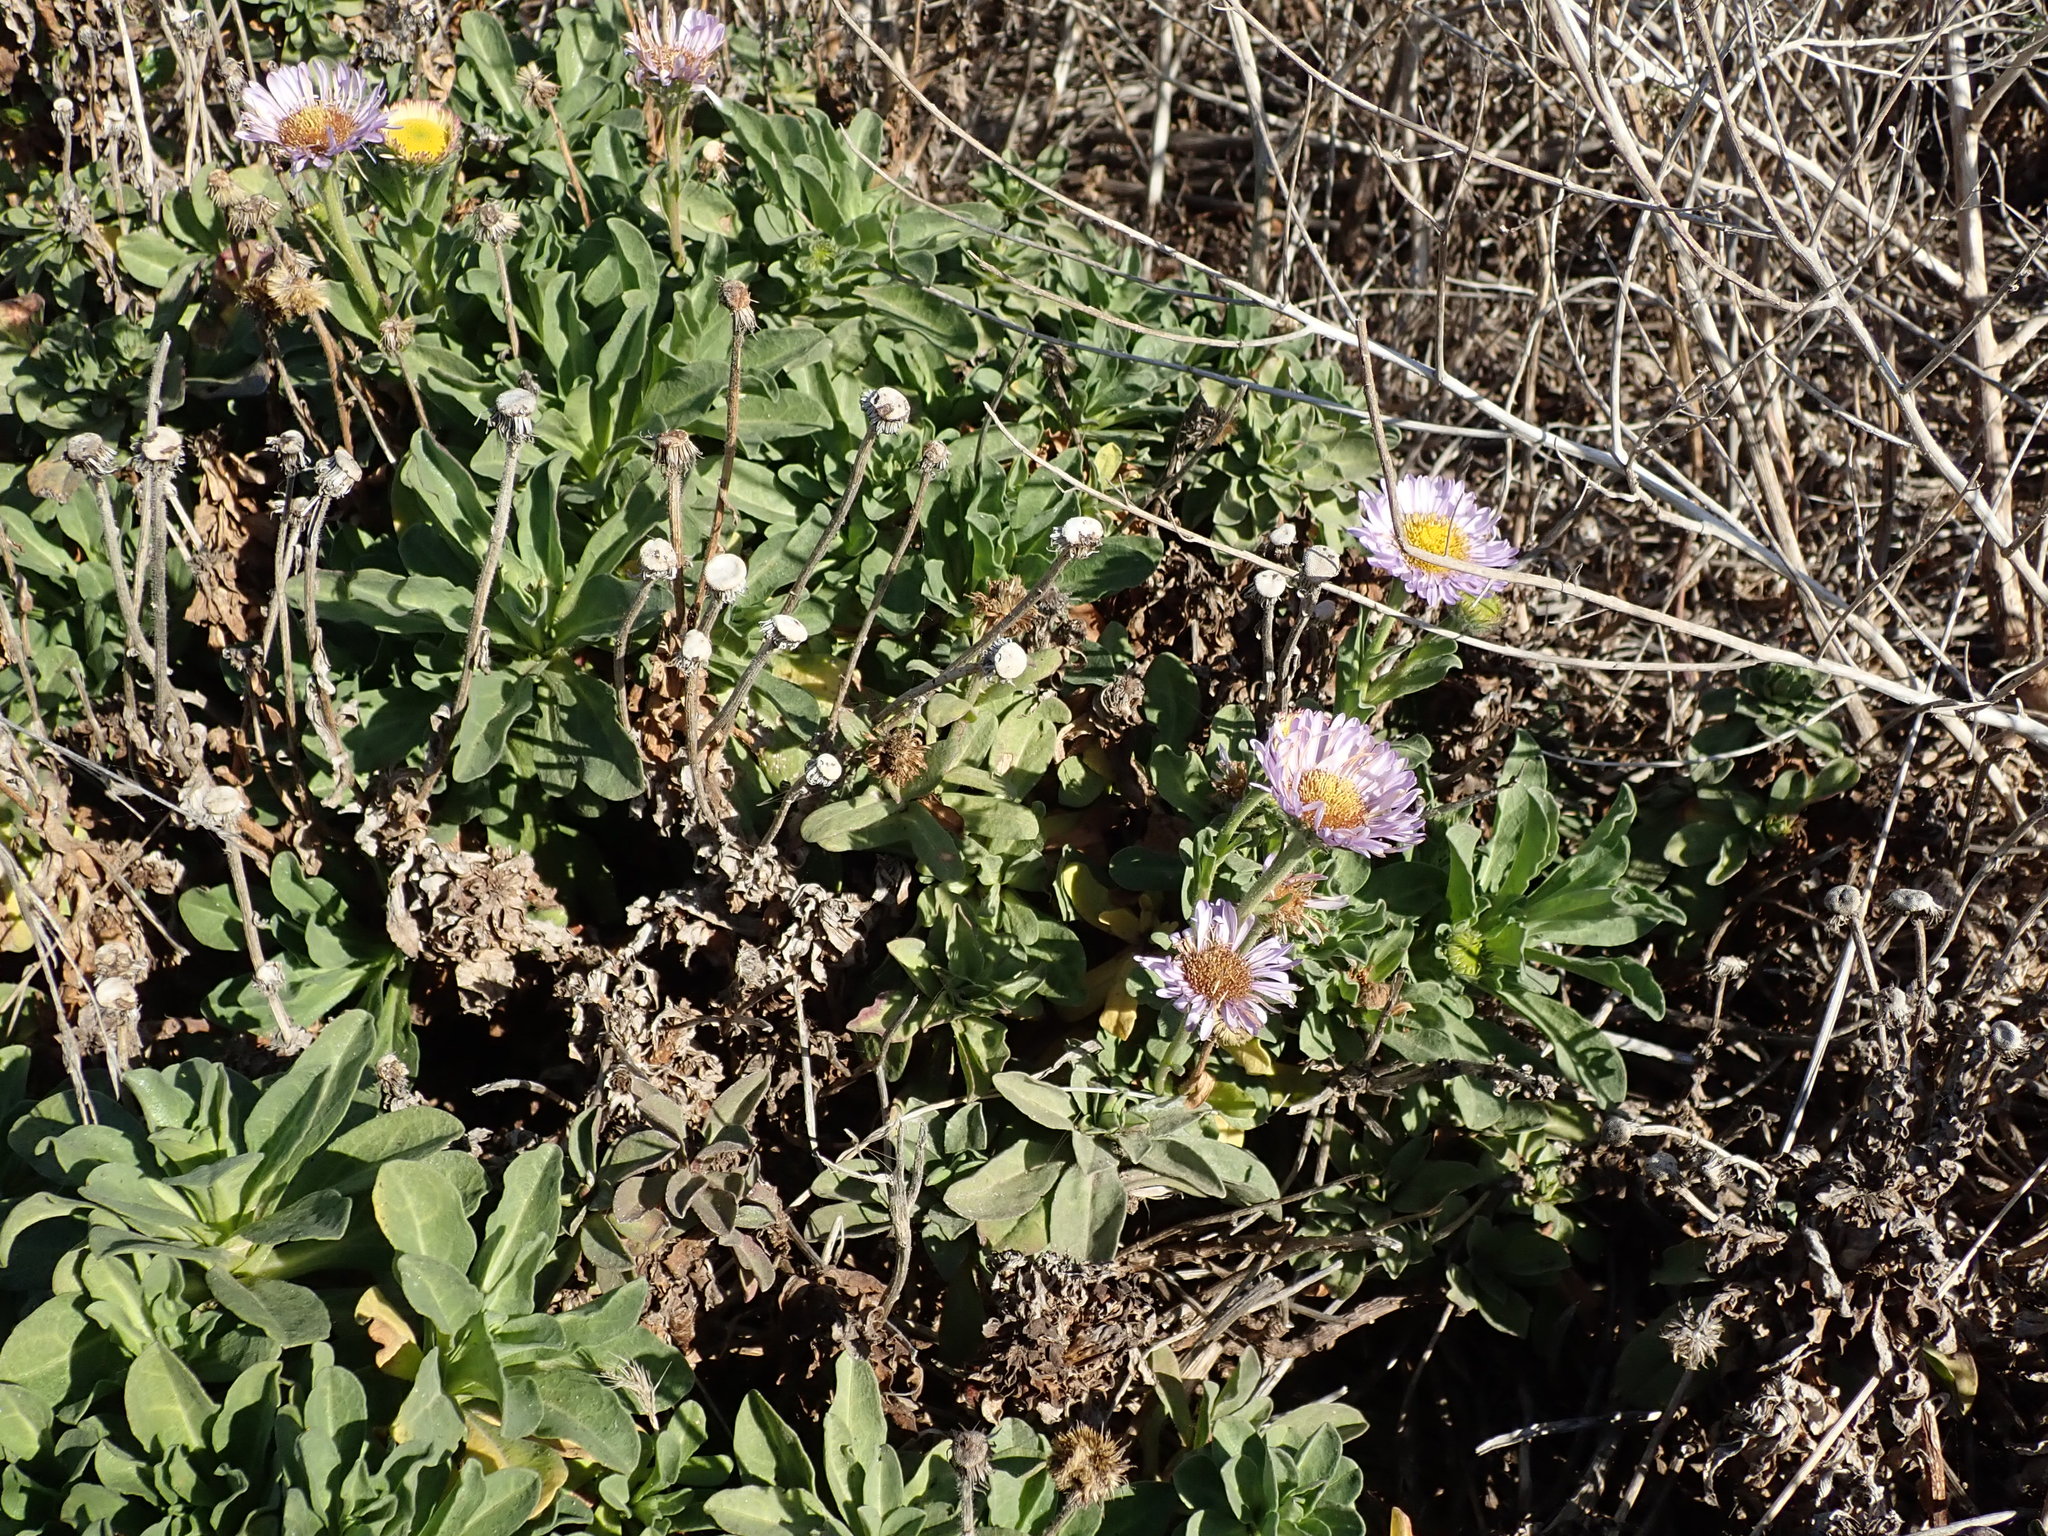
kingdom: Plantae
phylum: Tracheophyta
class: Magnoliopsida
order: Asterales
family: Asteraceae
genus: Erigeron
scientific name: Erigeron glaucus
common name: Seaside daisy
